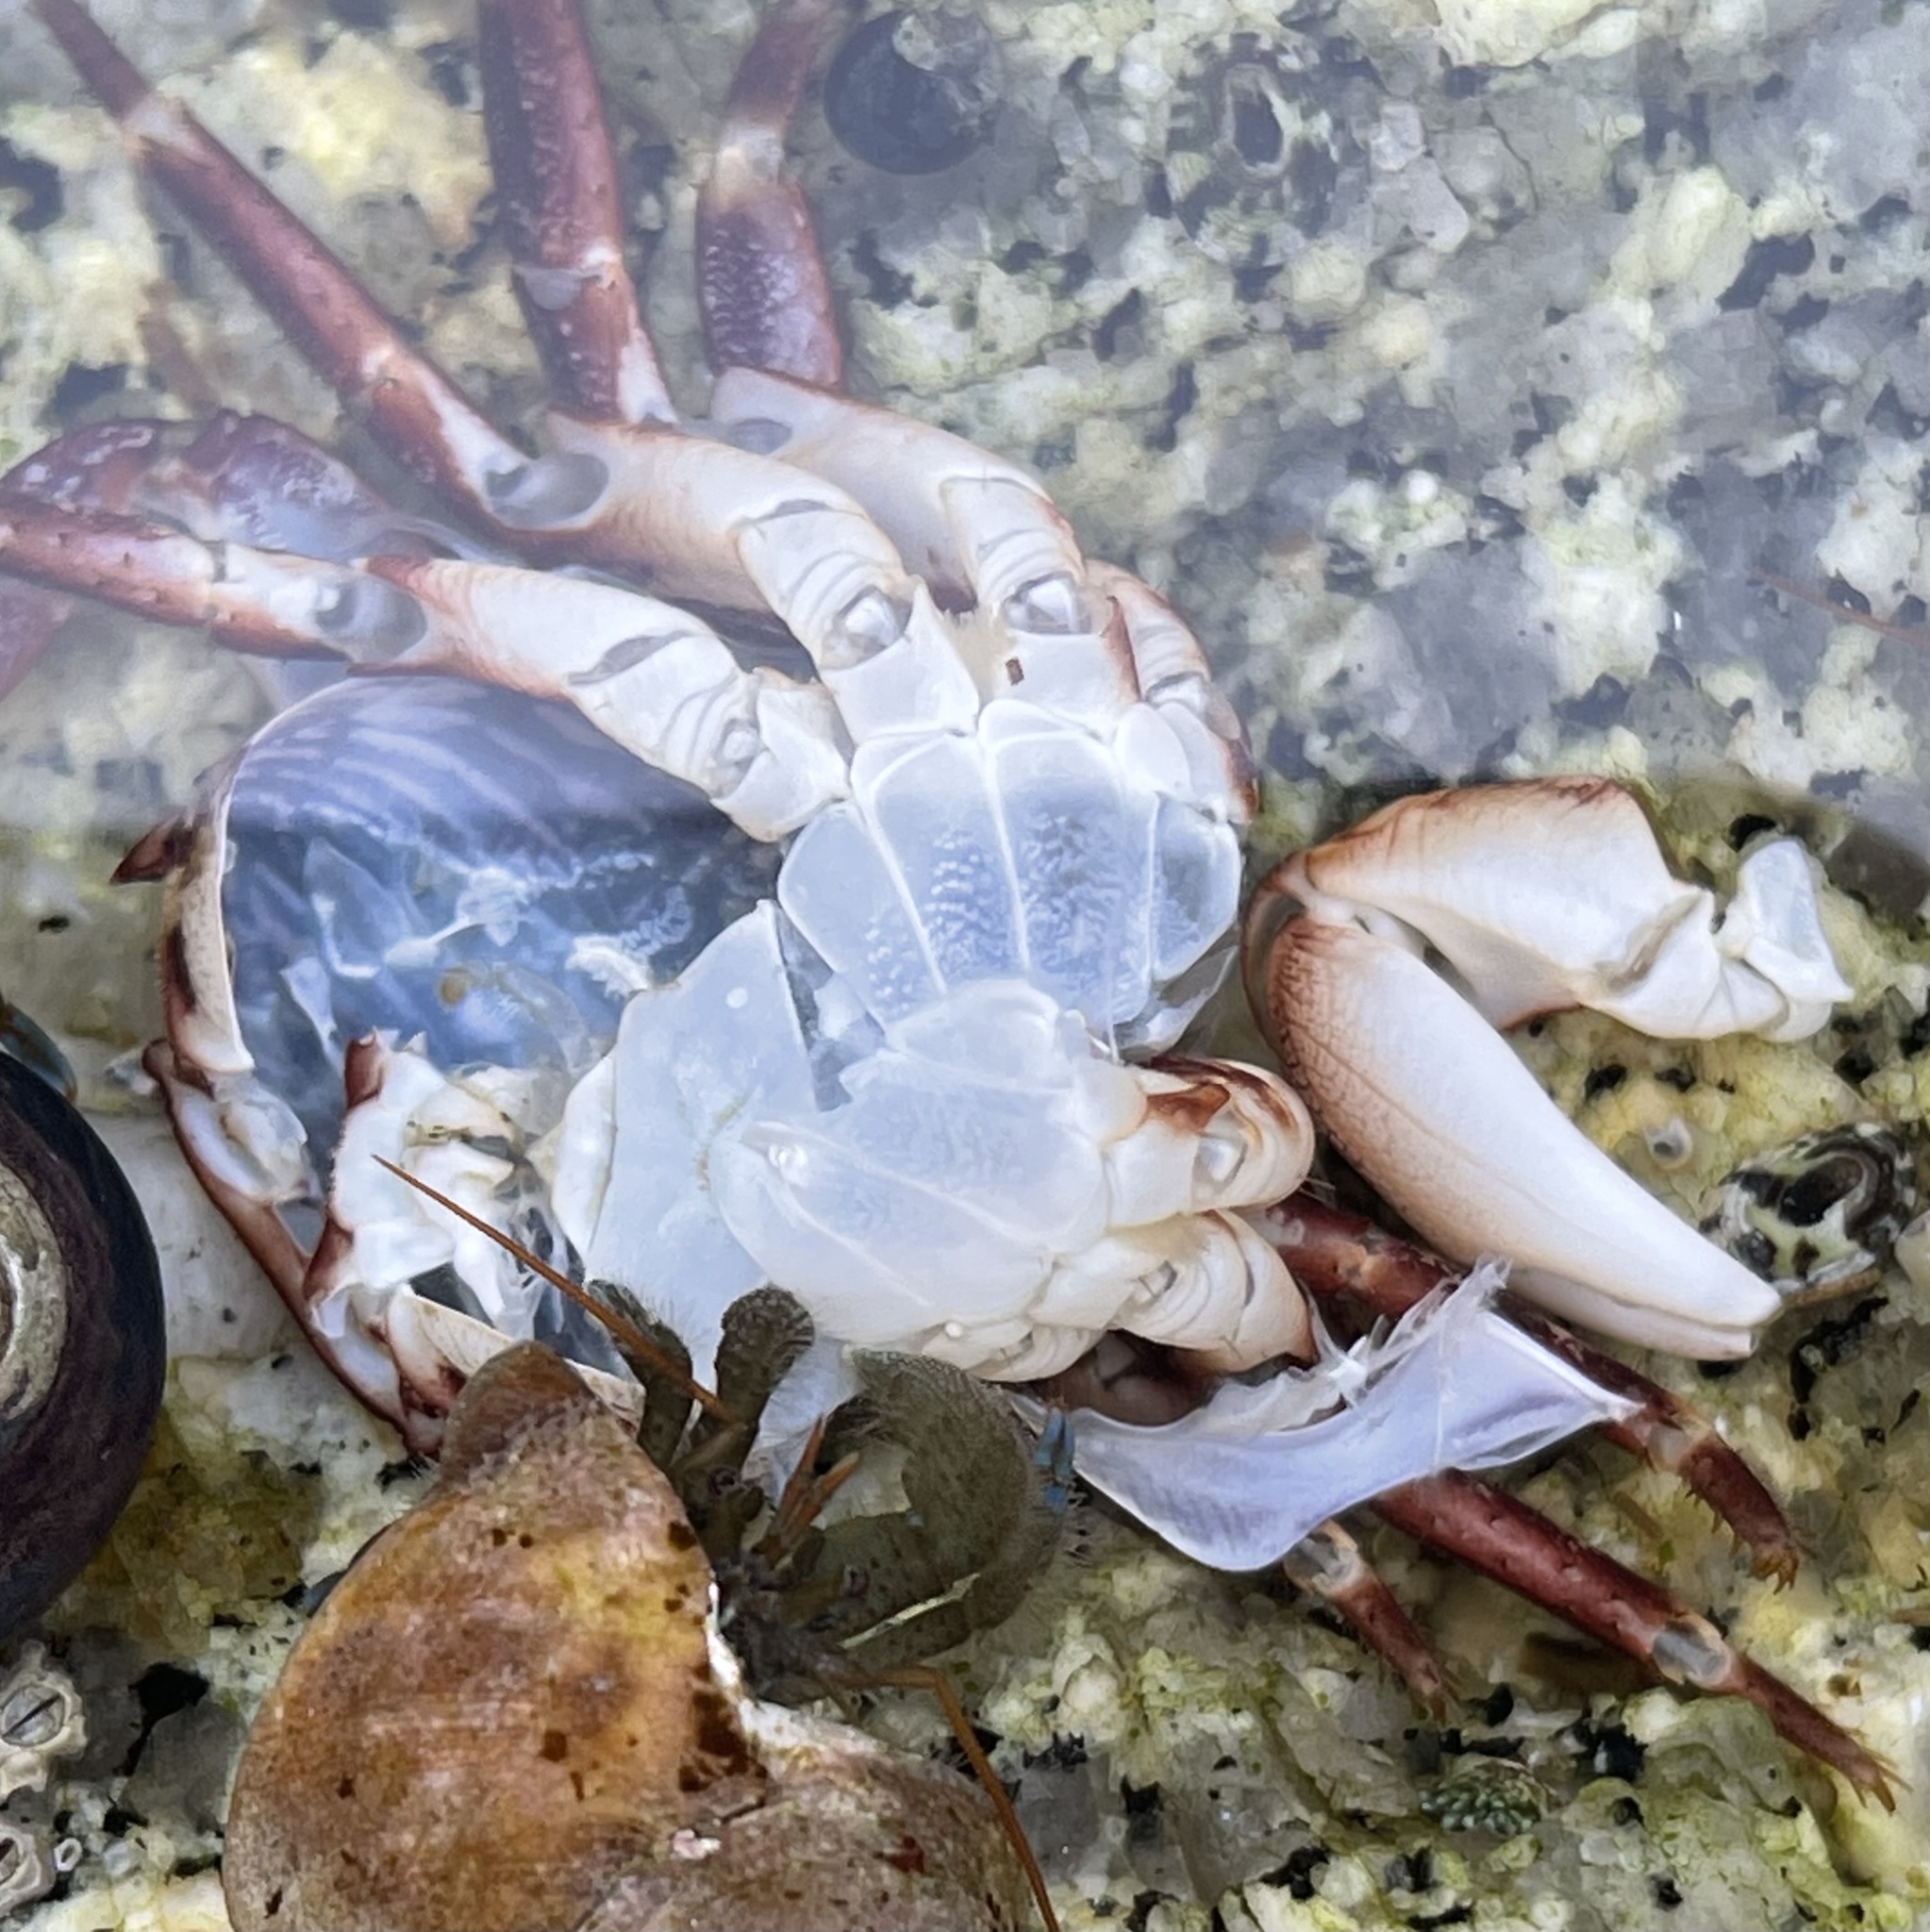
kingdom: Animalia
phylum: Arthropoda
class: Malacostraca
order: Decapoda
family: Grapsidae
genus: Pachygrapsus
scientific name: Pachygrapsus crassipes
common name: Striped shore crab
